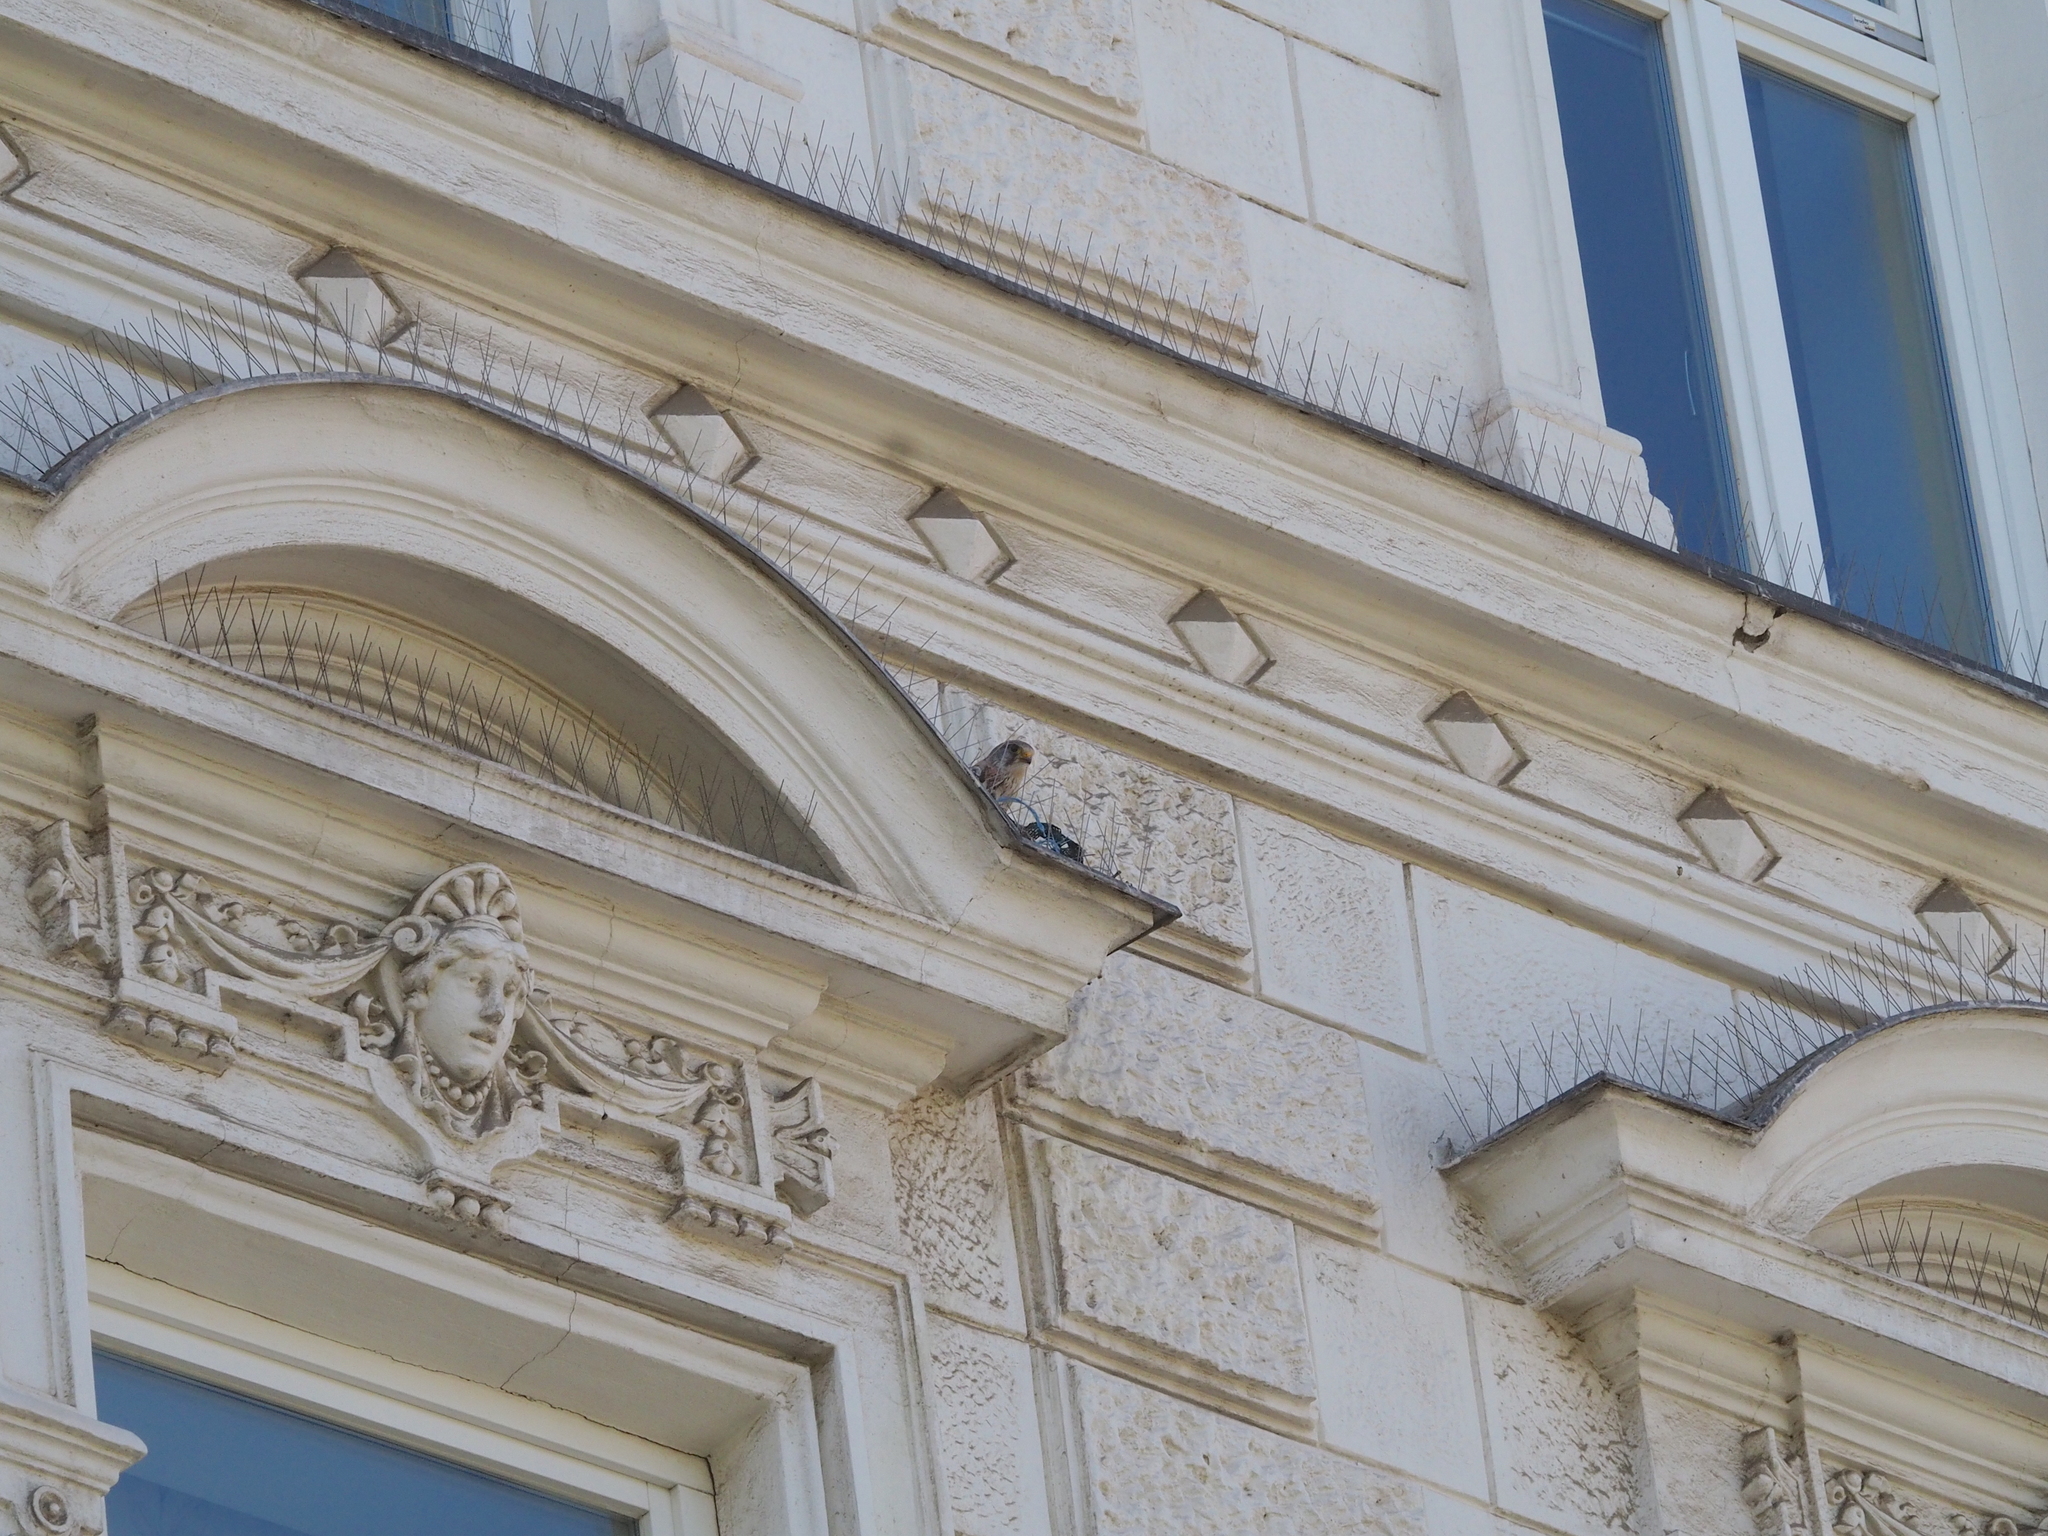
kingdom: Animalia
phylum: Chordata
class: Aves
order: Falconiformes
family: Falconidae
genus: Falco
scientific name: Falco tinnunculus
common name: Common kestrel
